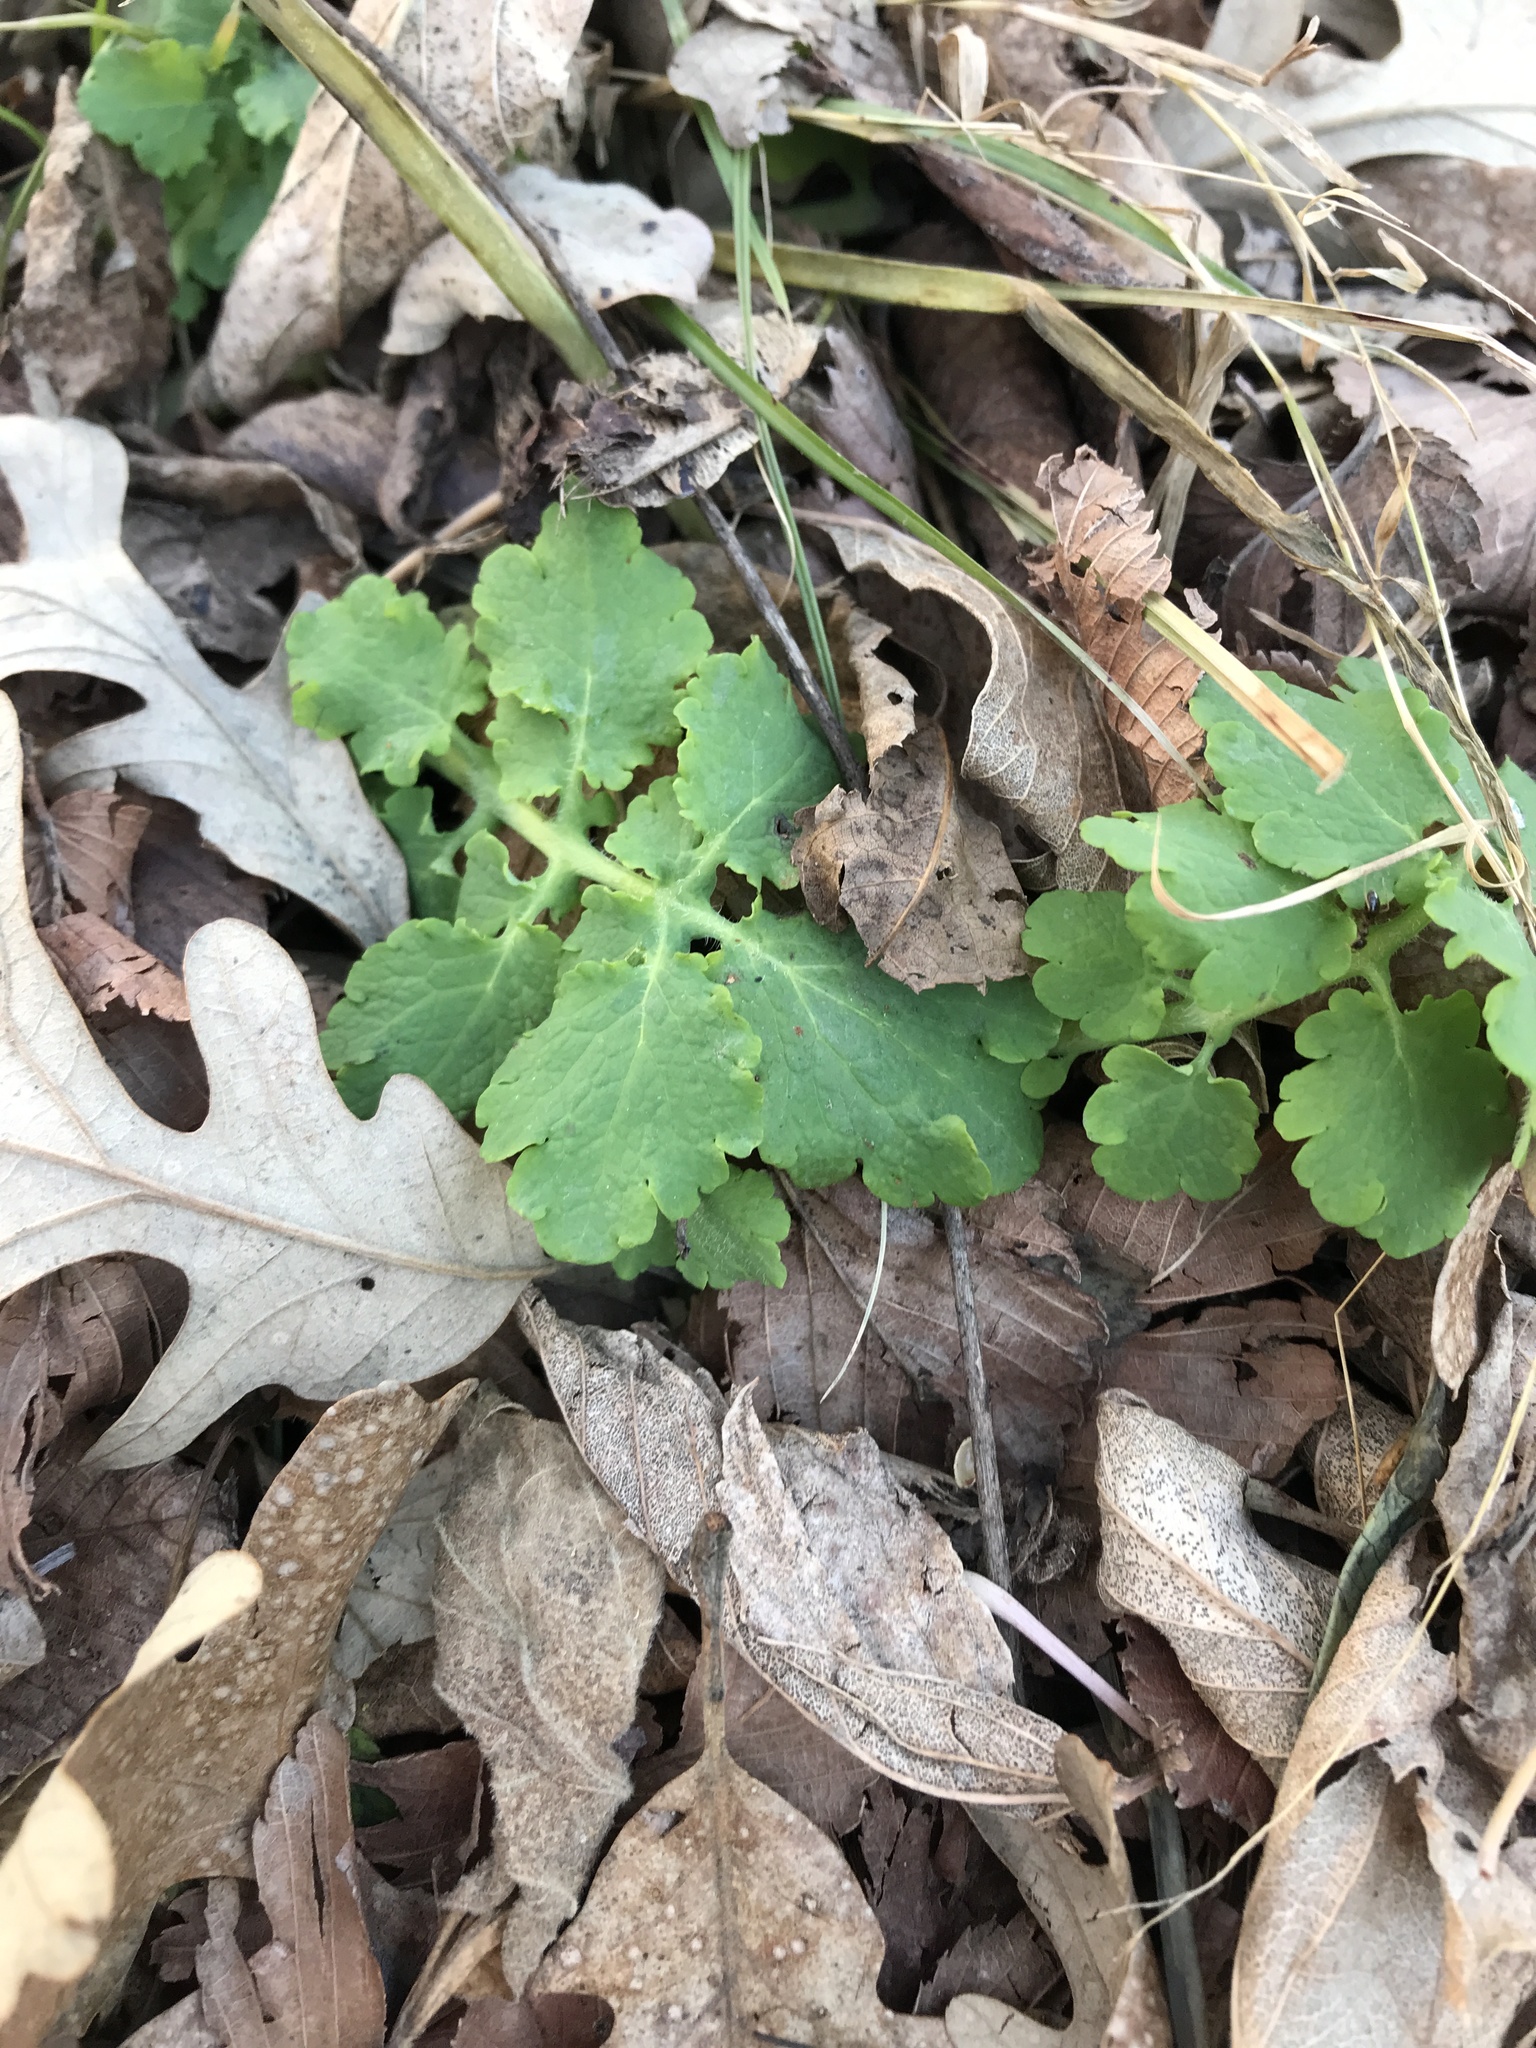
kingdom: Plantae
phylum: Tracheophyta
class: Magnoliopsida
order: Ranunculales
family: Papaveraceae
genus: Chelidonium
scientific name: Chelidonium majus
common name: Greater celandine
